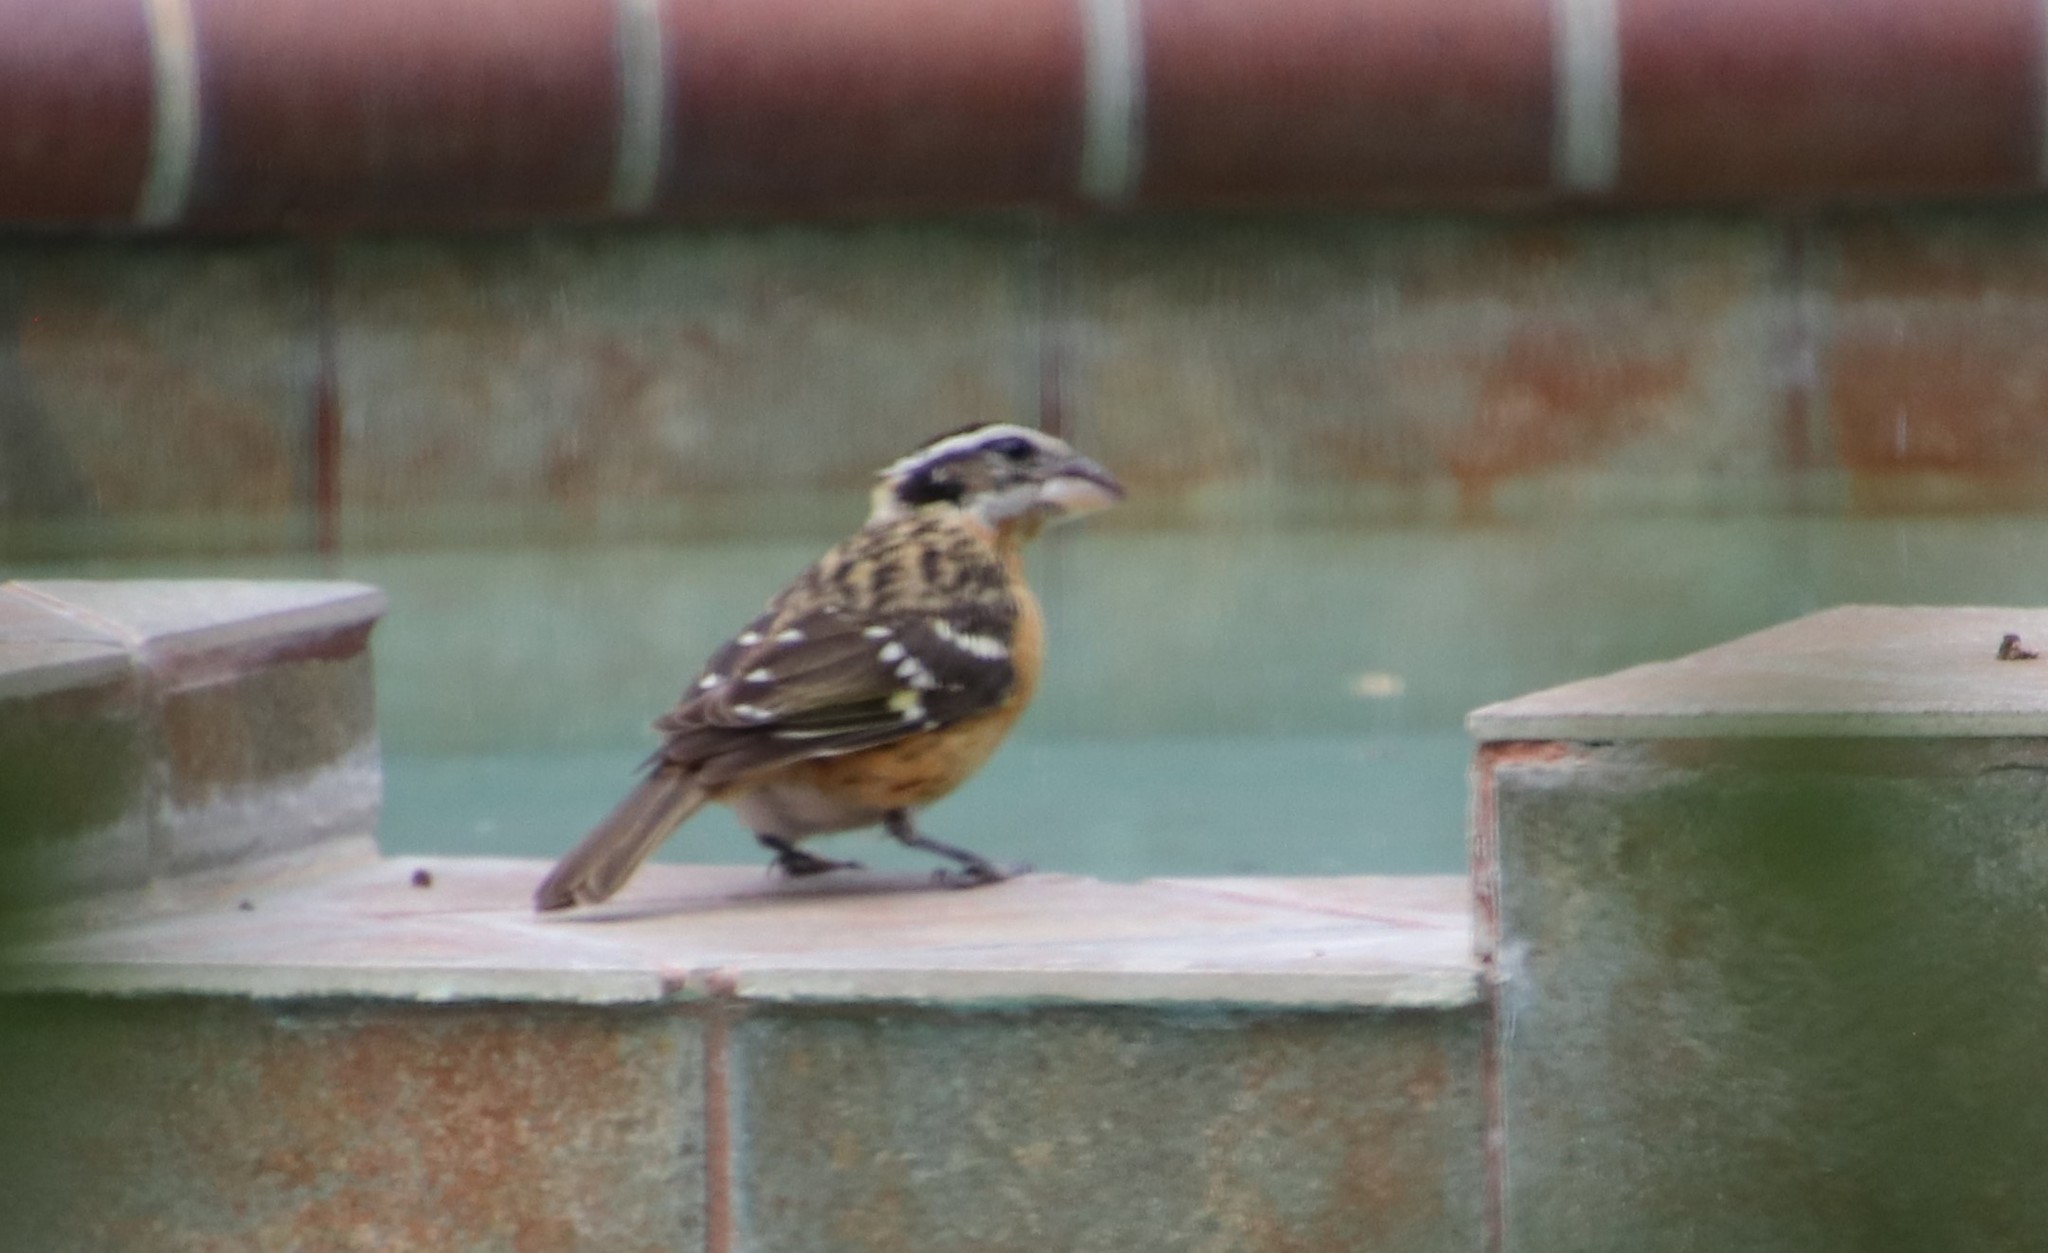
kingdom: Animalia
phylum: Chordata
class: Aves
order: Passeriformes
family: Cardinalidae
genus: Pheucticus
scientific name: Pheucticus melanocephalus
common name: Black-headed grosbeak
